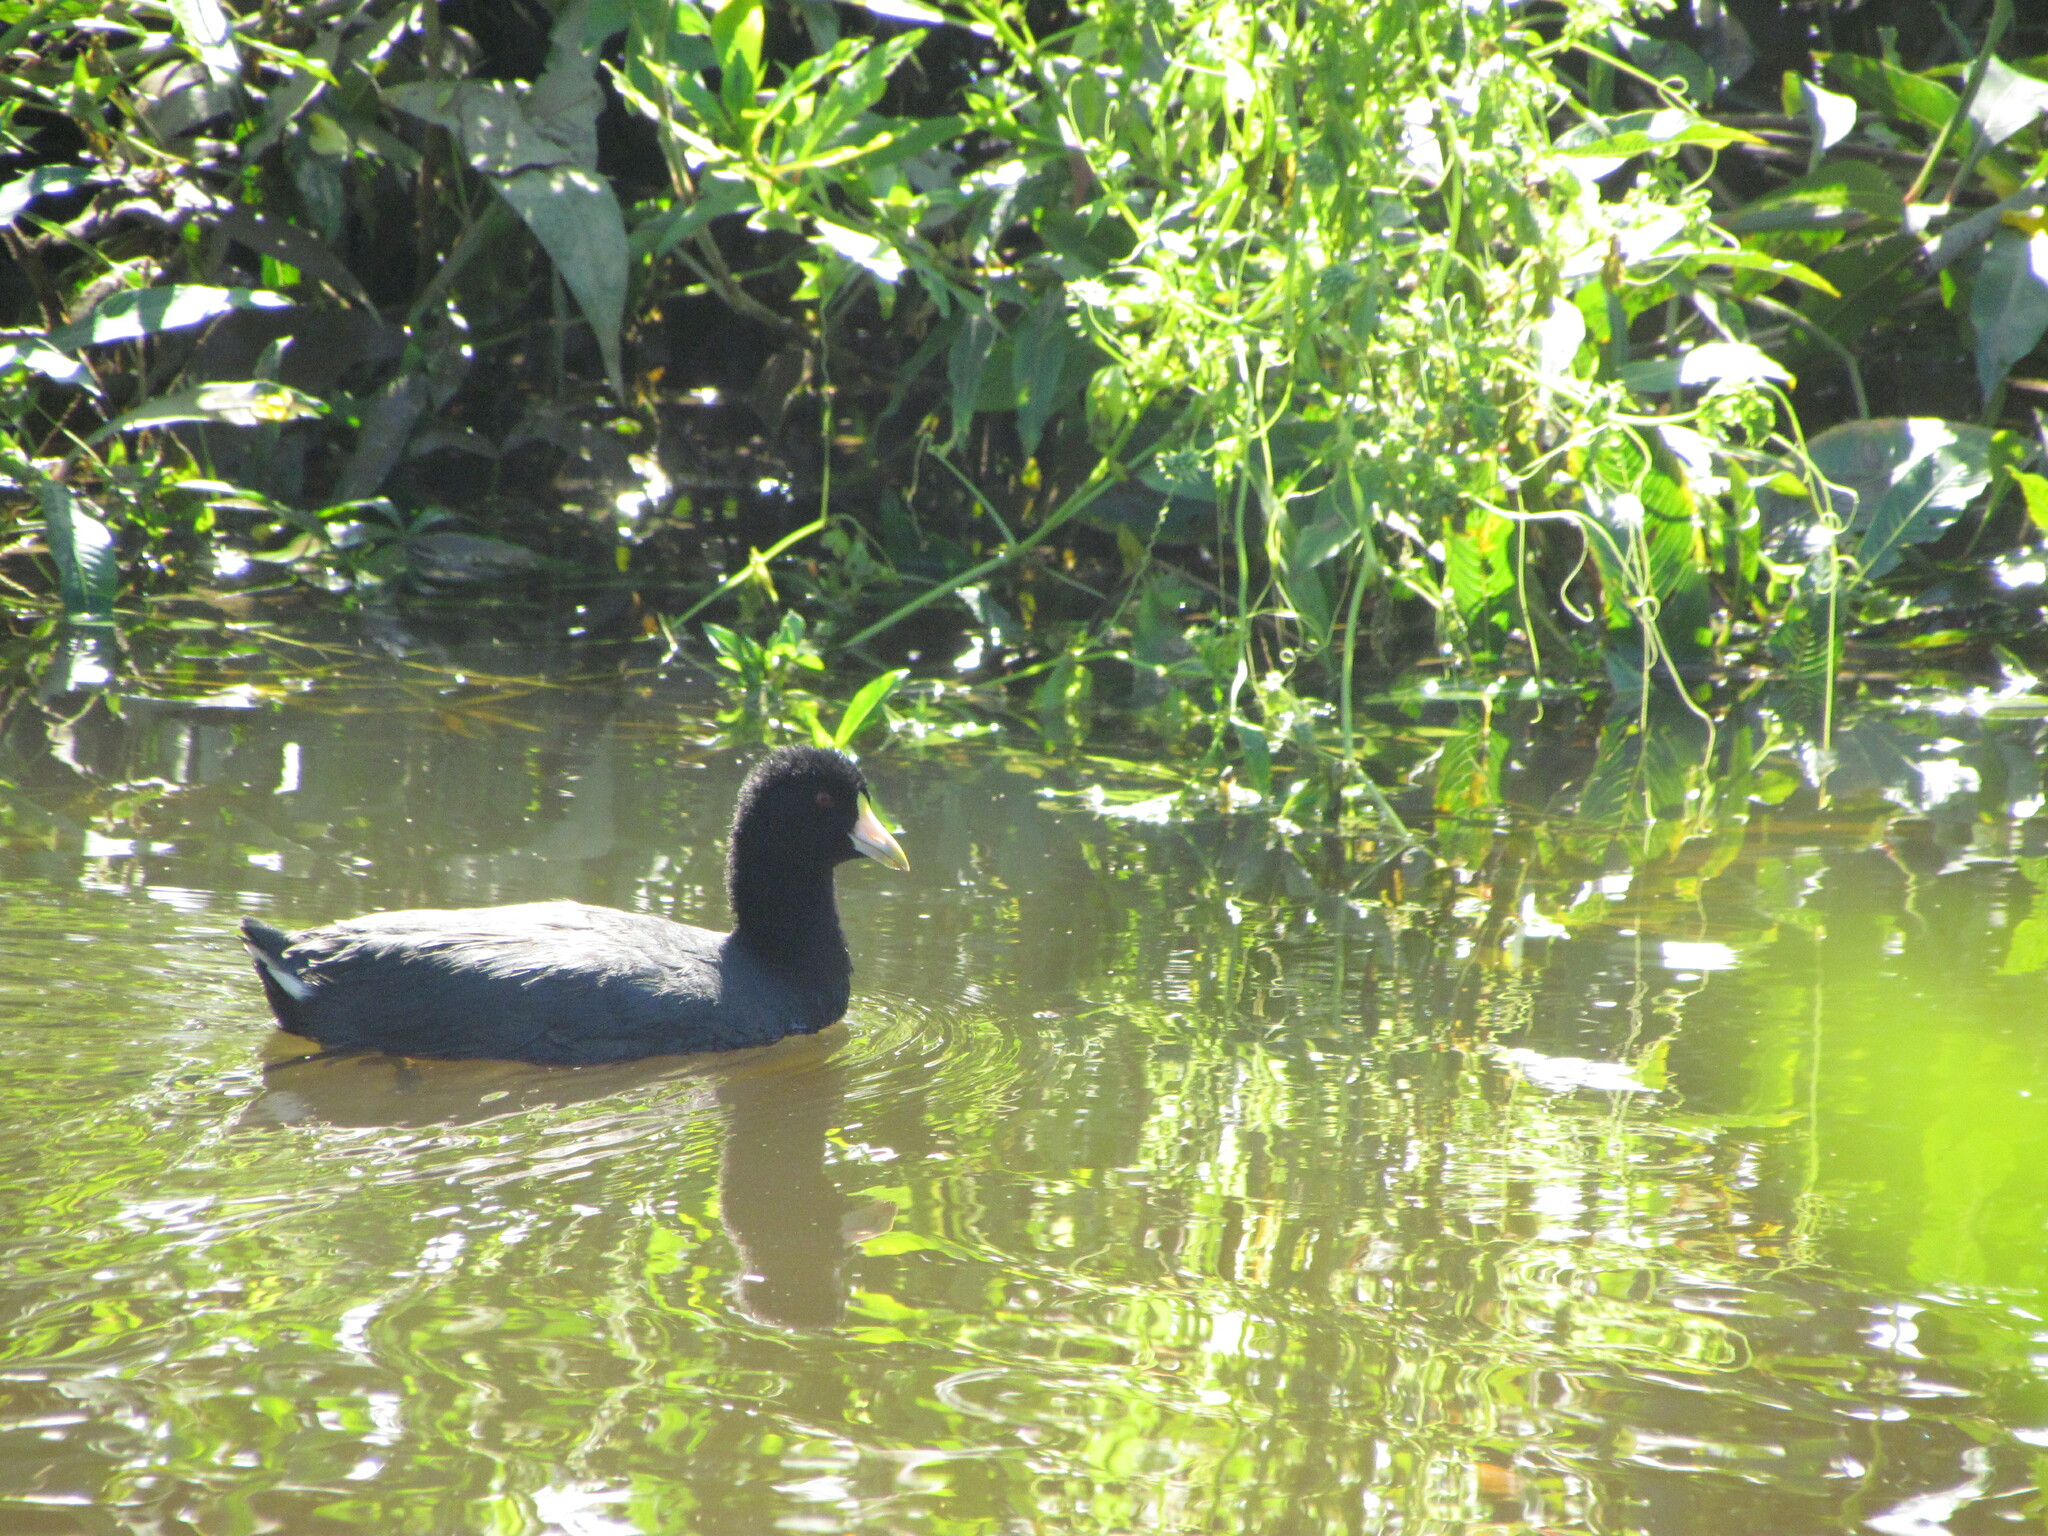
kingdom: Animalia
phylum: Chordata
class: Aves
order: Gruiformes
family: Rallidae
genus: Fulica
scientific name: Fulica leucoptera
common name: White-winged coot
